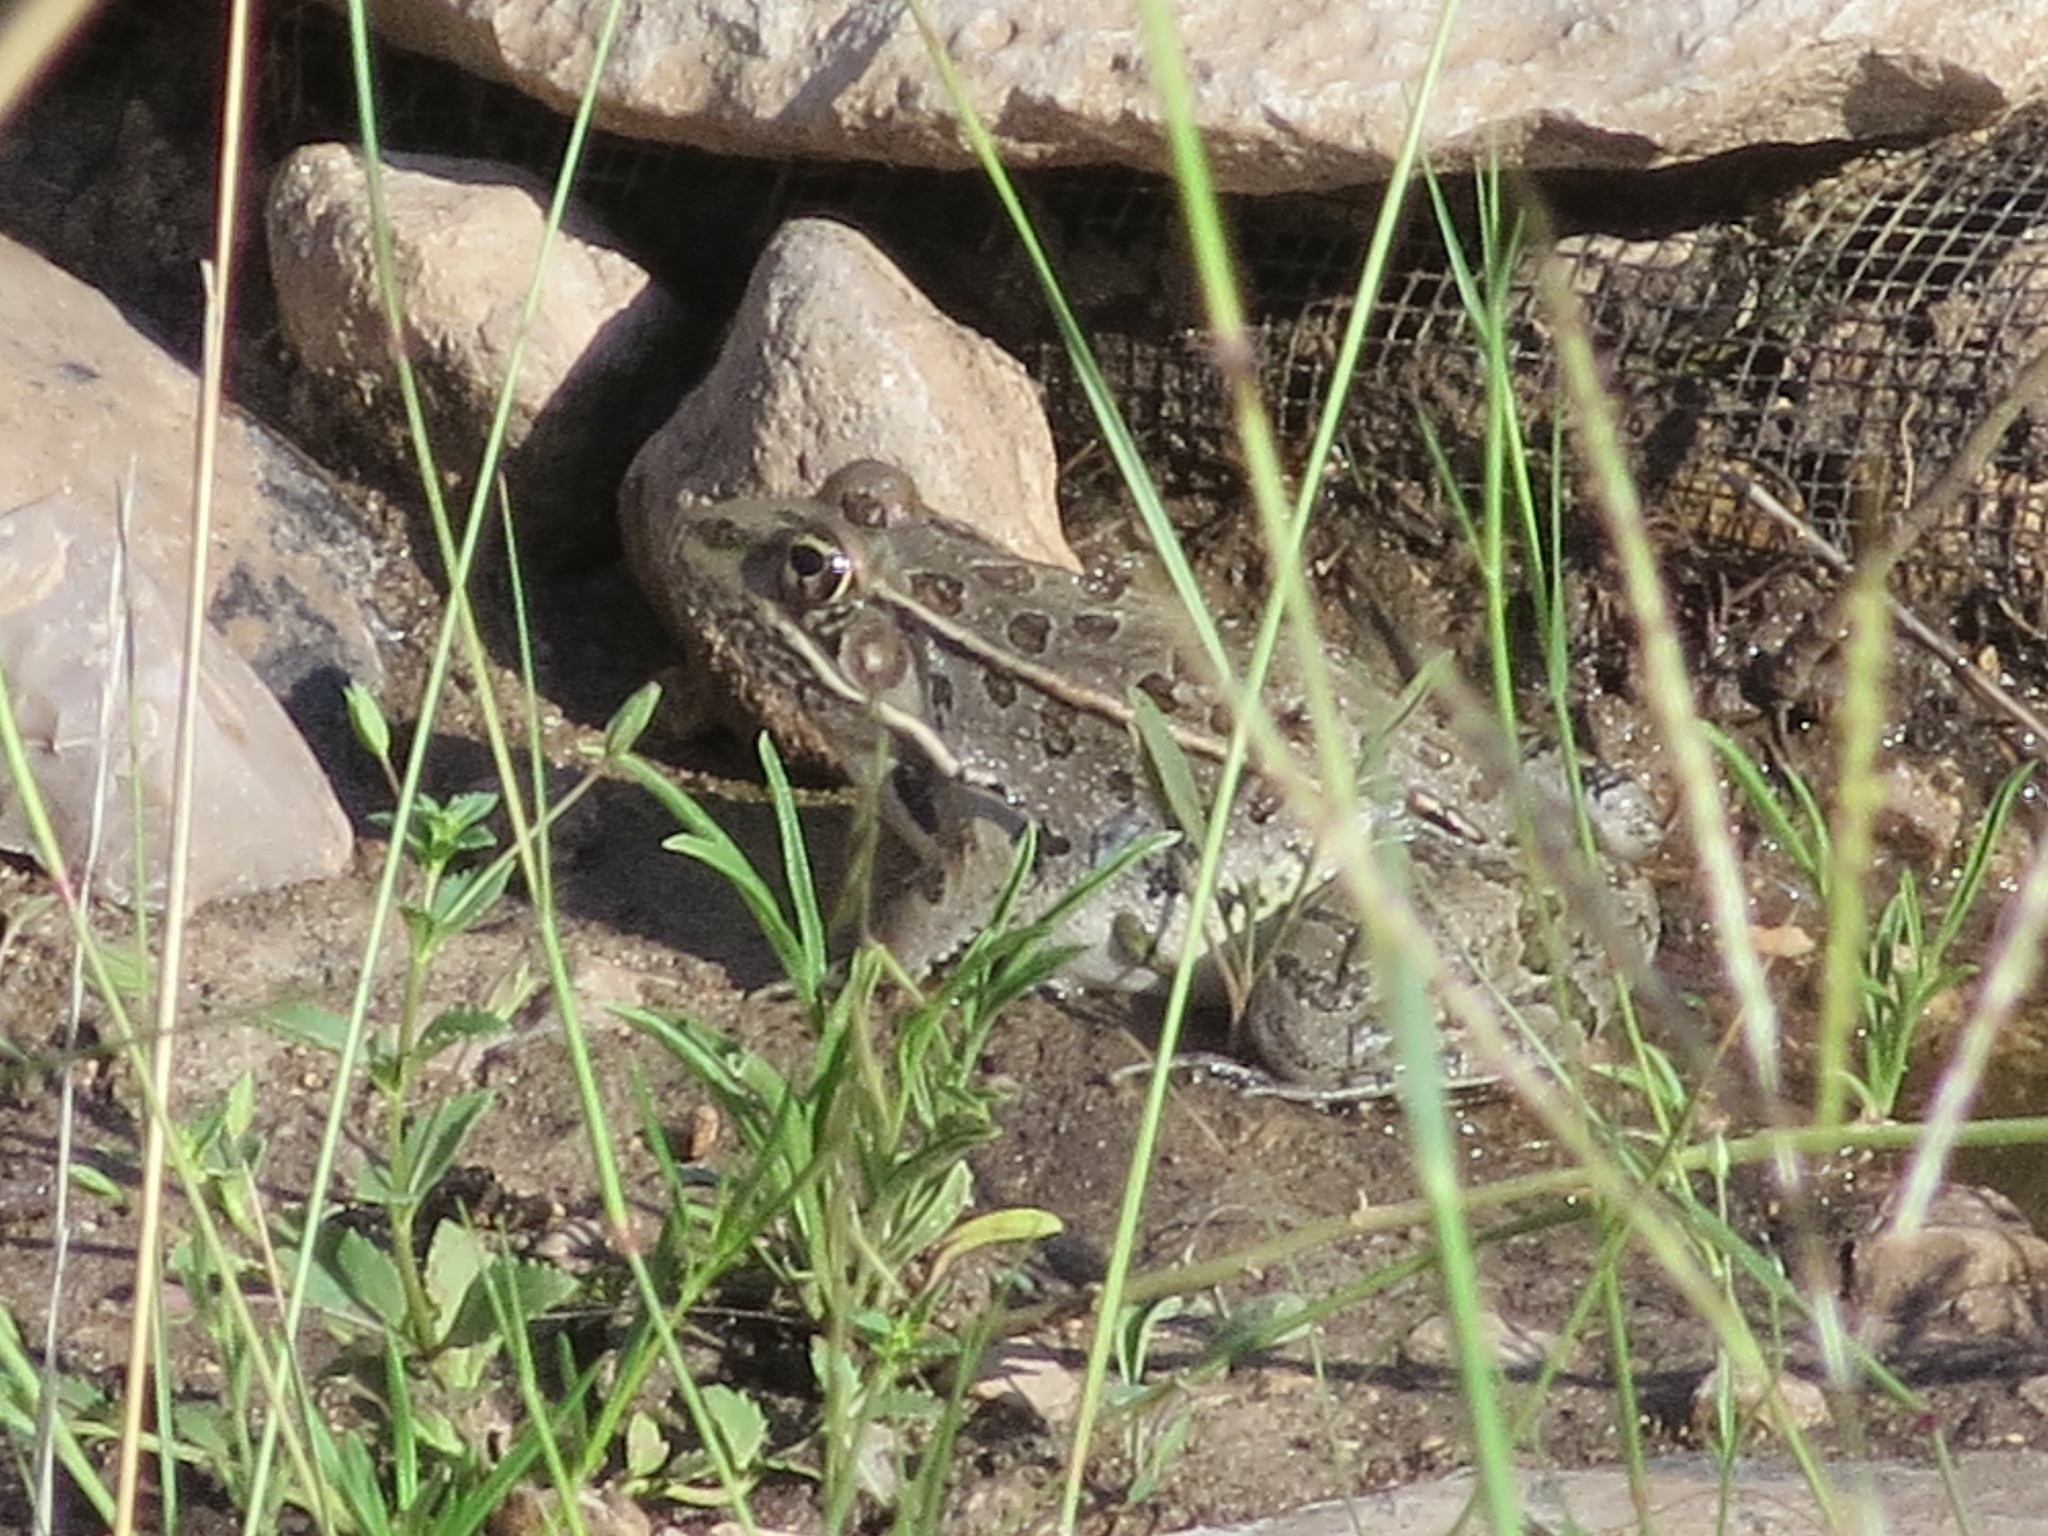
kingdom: Animalia
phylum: Chordata
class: Amphibia
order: Anura
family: Ranidae
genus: Lithobates
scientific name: Lithobates berlandieri
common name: Rio grande leopard frog
